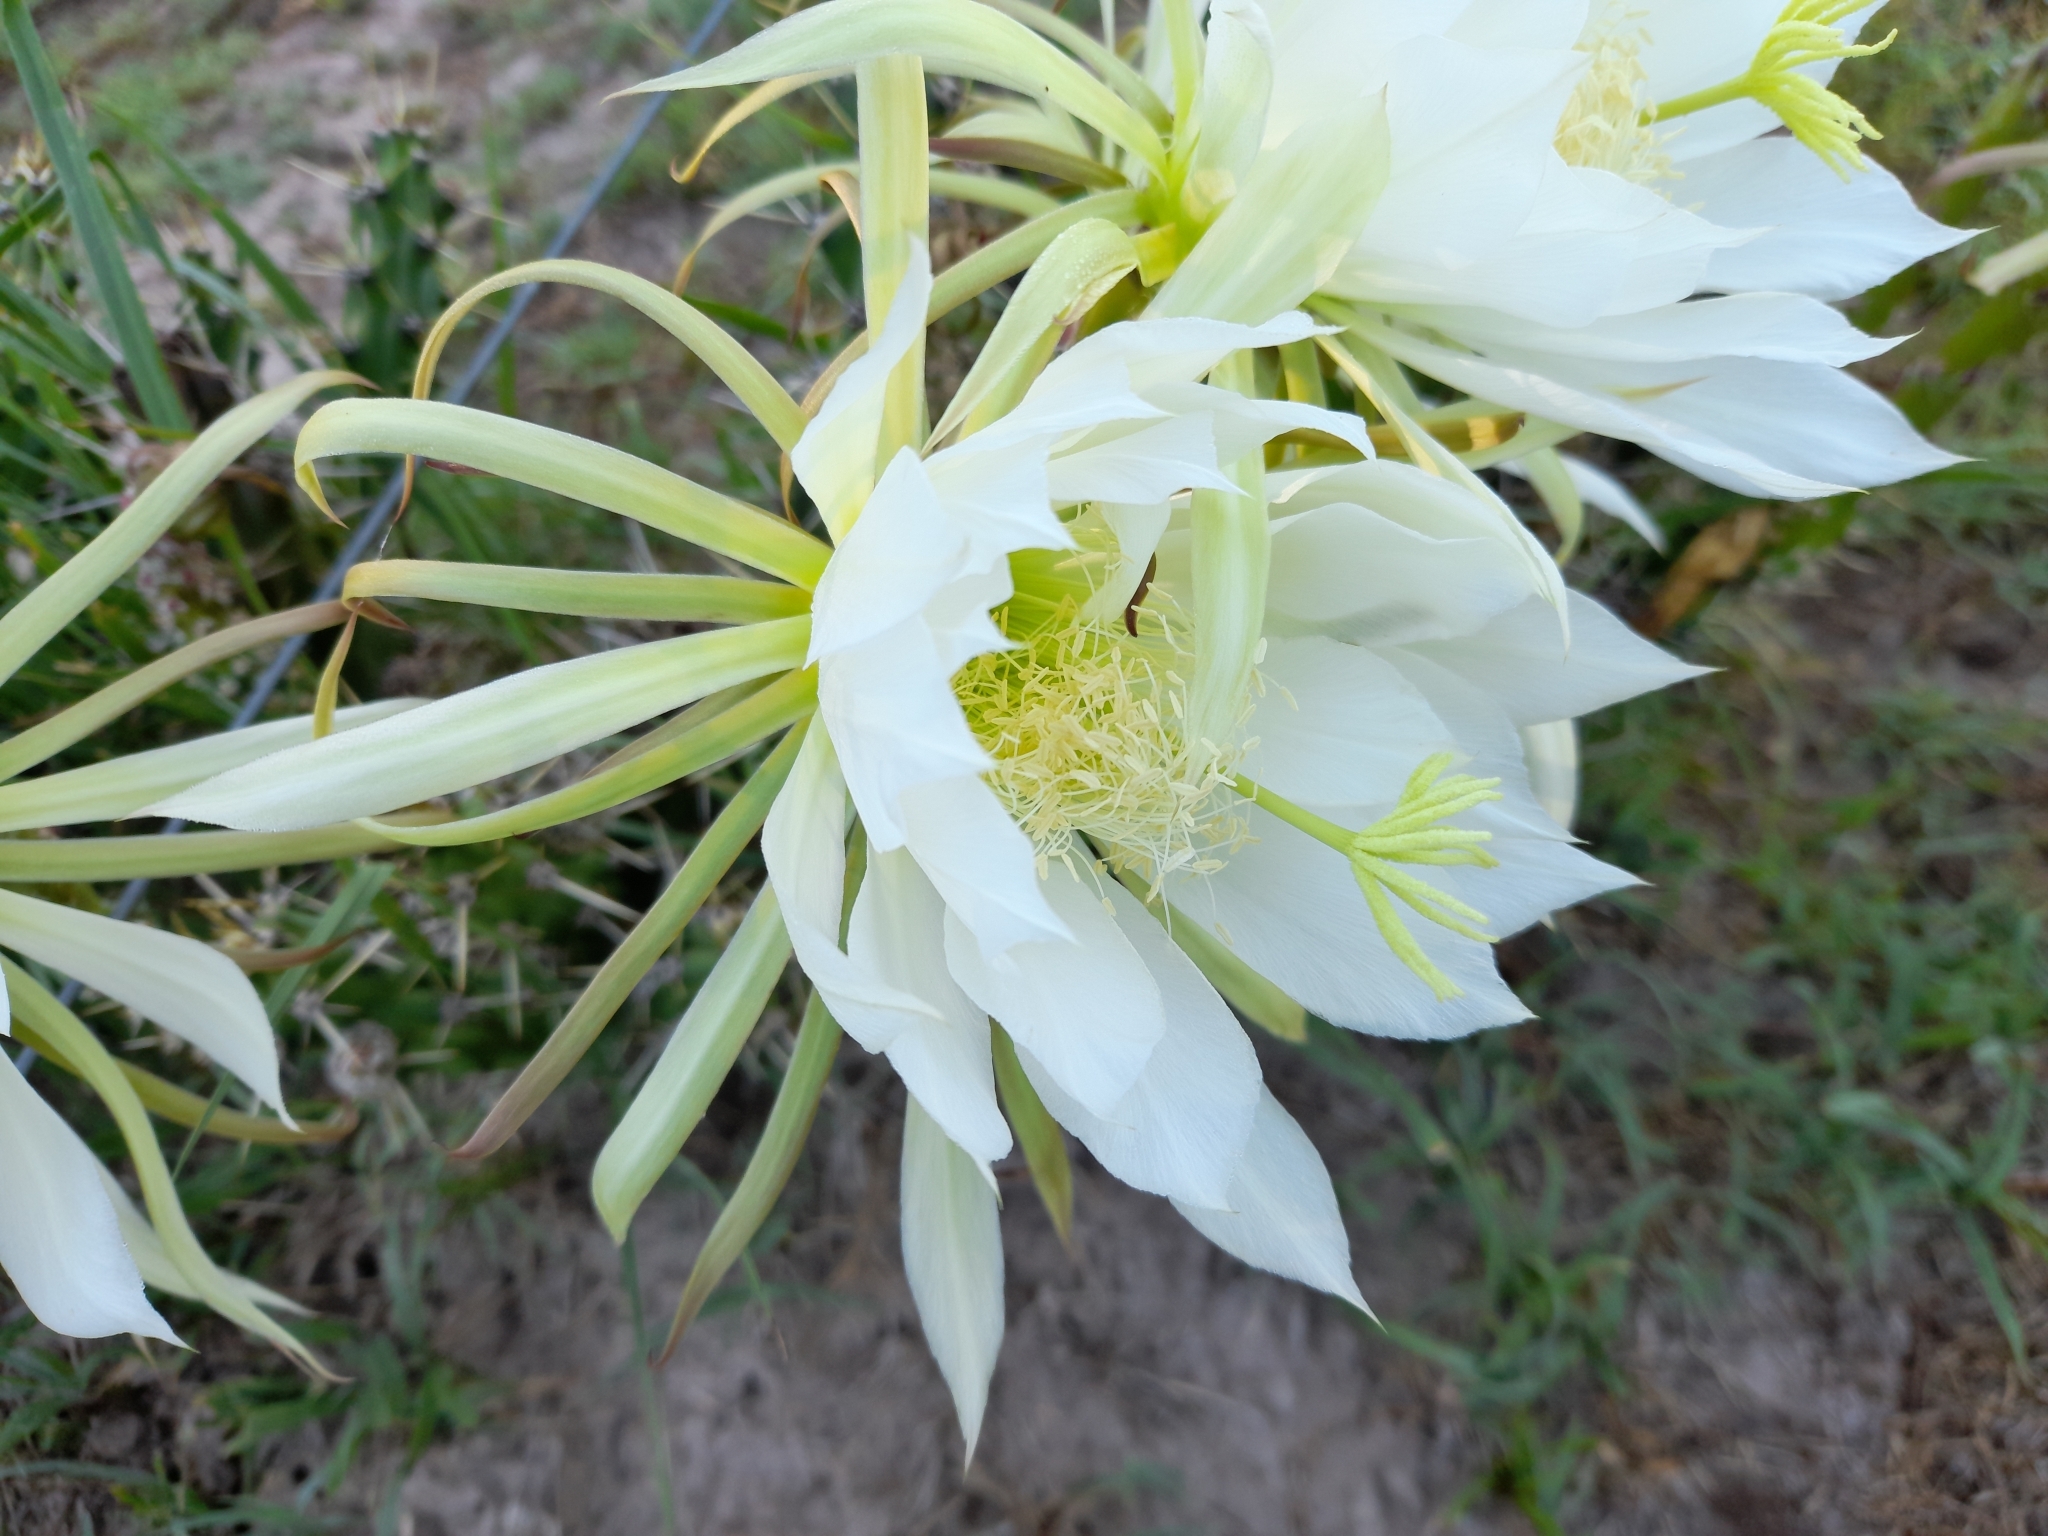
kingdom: Plantae
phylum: Tracheophyta
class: Magnoliopsida
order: Caryophyllales
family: Cactaceae
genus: Harrisia
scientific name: Harrisia martinii
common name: Moon cactus
